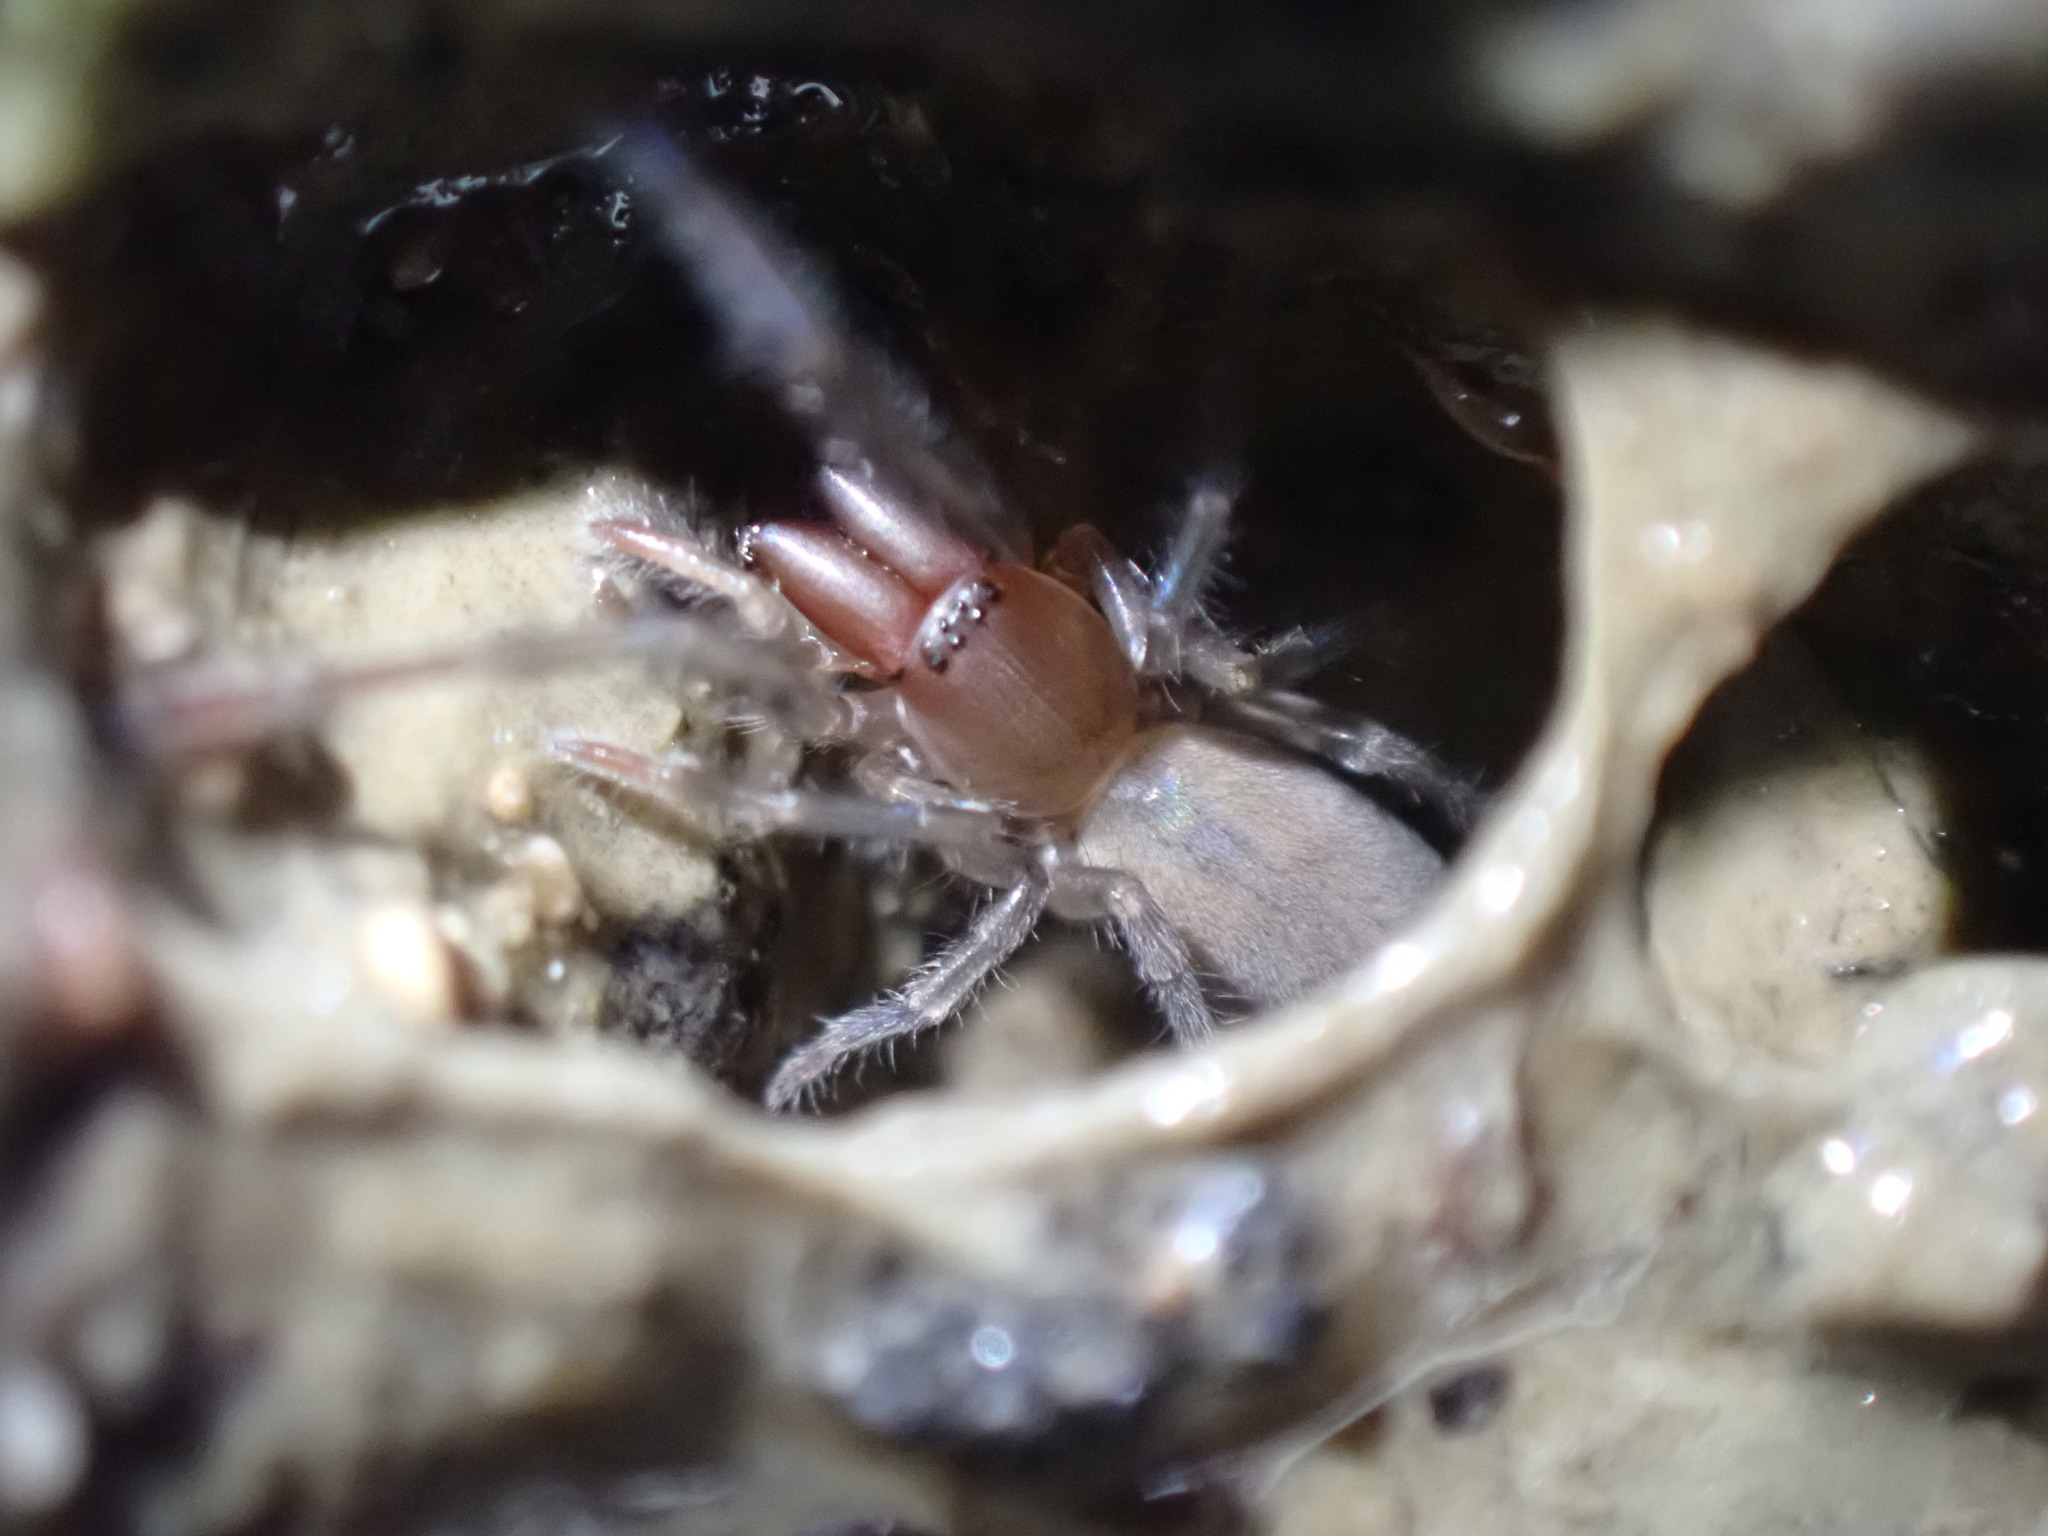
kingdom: Animalia
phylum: Arthropoda
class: Arachnida
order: Araneae
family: Desidae
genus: Desis
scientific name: Desis marina
